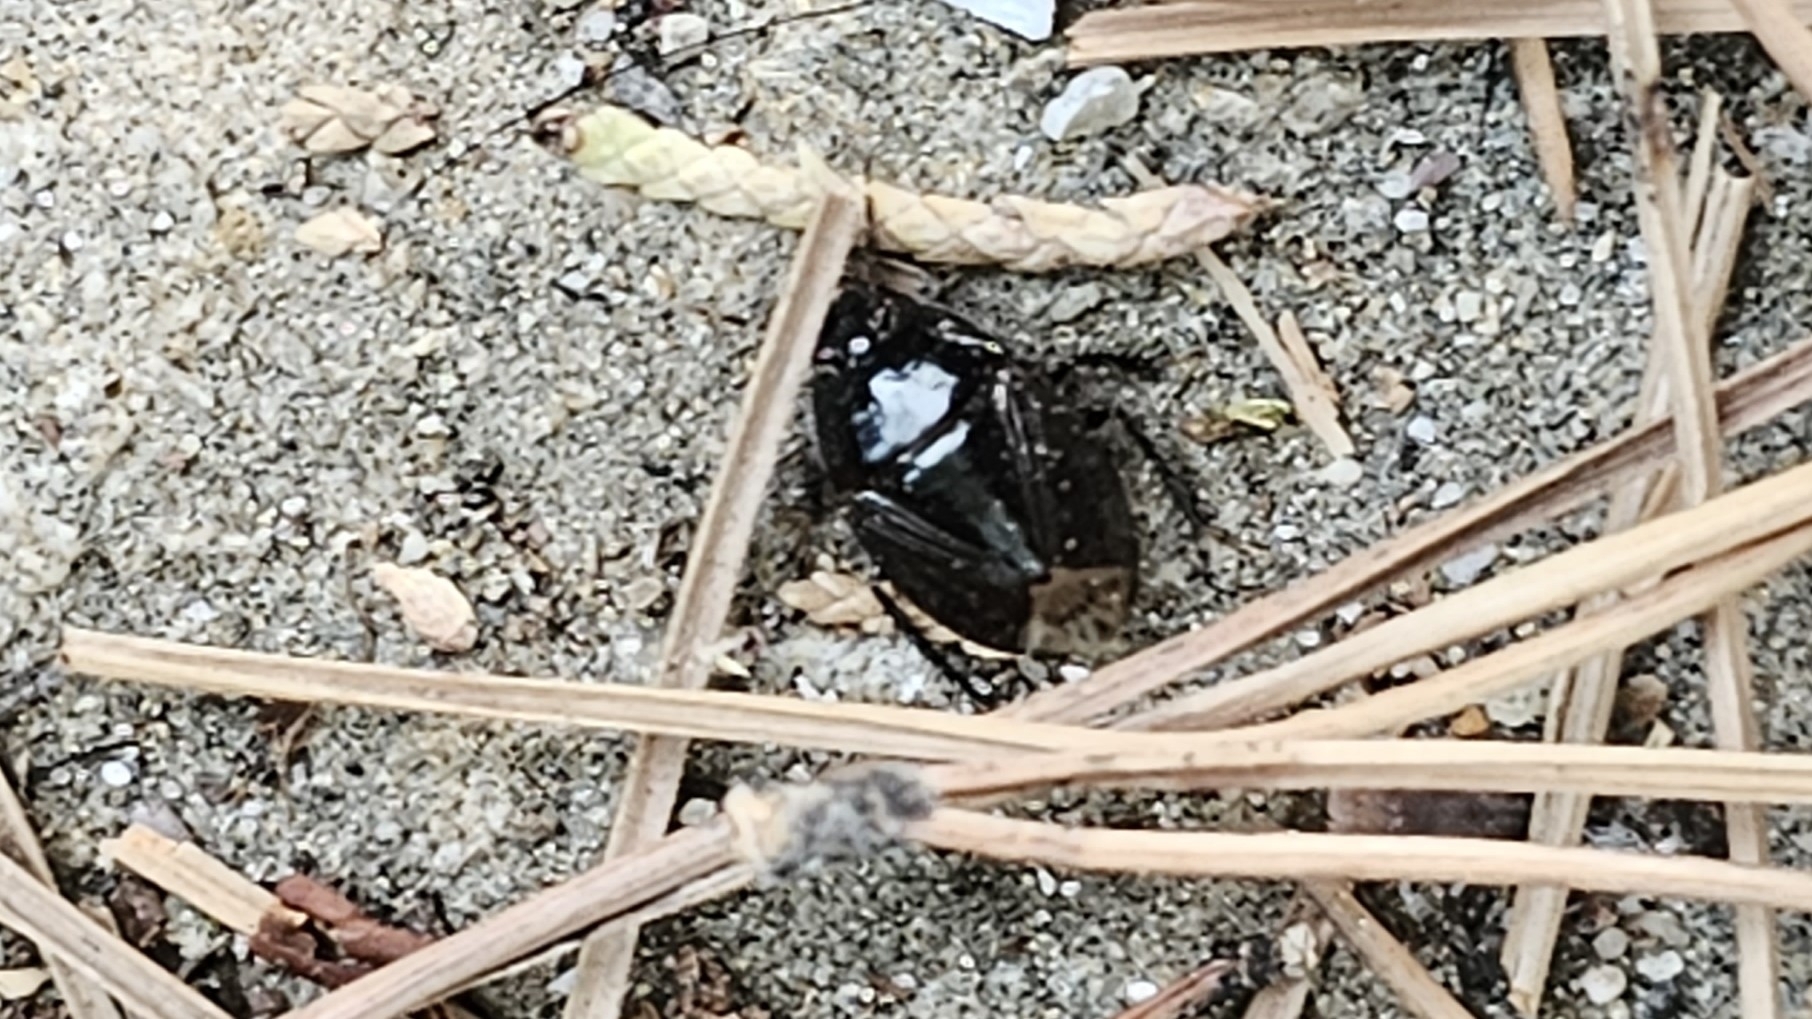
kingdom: Animalia
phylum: Arthropoda
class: Insecta
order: Hemiptera
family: Cydnidae
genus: Macroscytus
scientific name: Macroscytus brunneus
